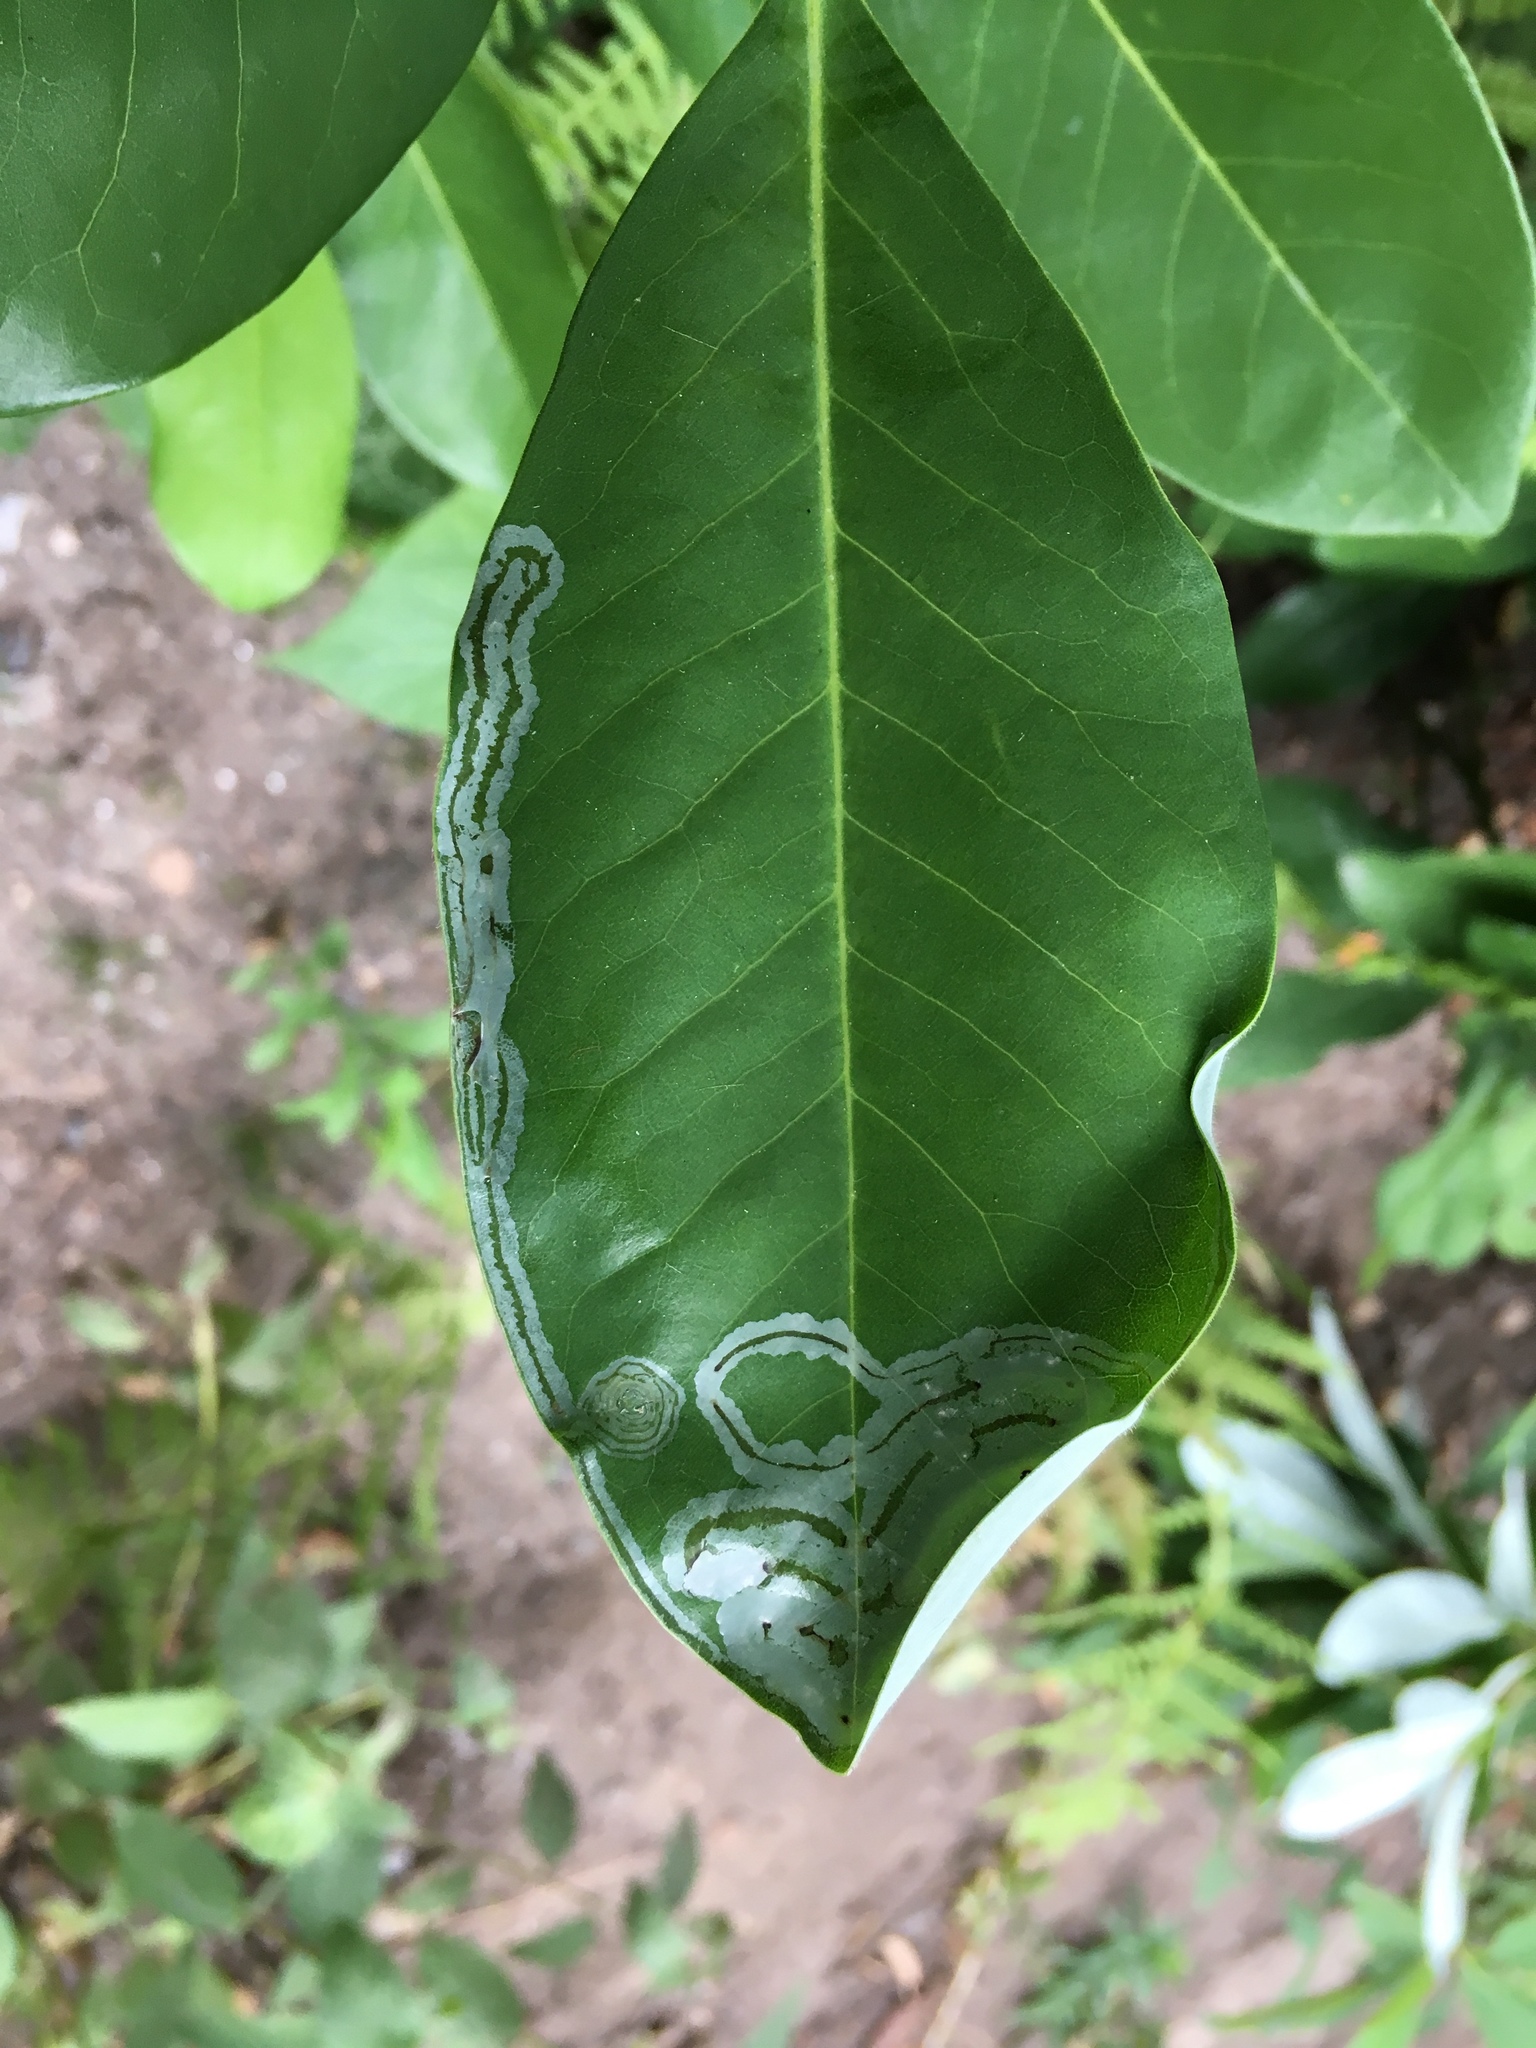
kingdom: Animalia
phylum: Arthropoda
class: Insecta
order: Lepidoptera
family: Gracillariidae
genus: Phyllocnistis
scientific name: Phyllocnistis liriodendronella
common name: Tulip tree leaf miner
